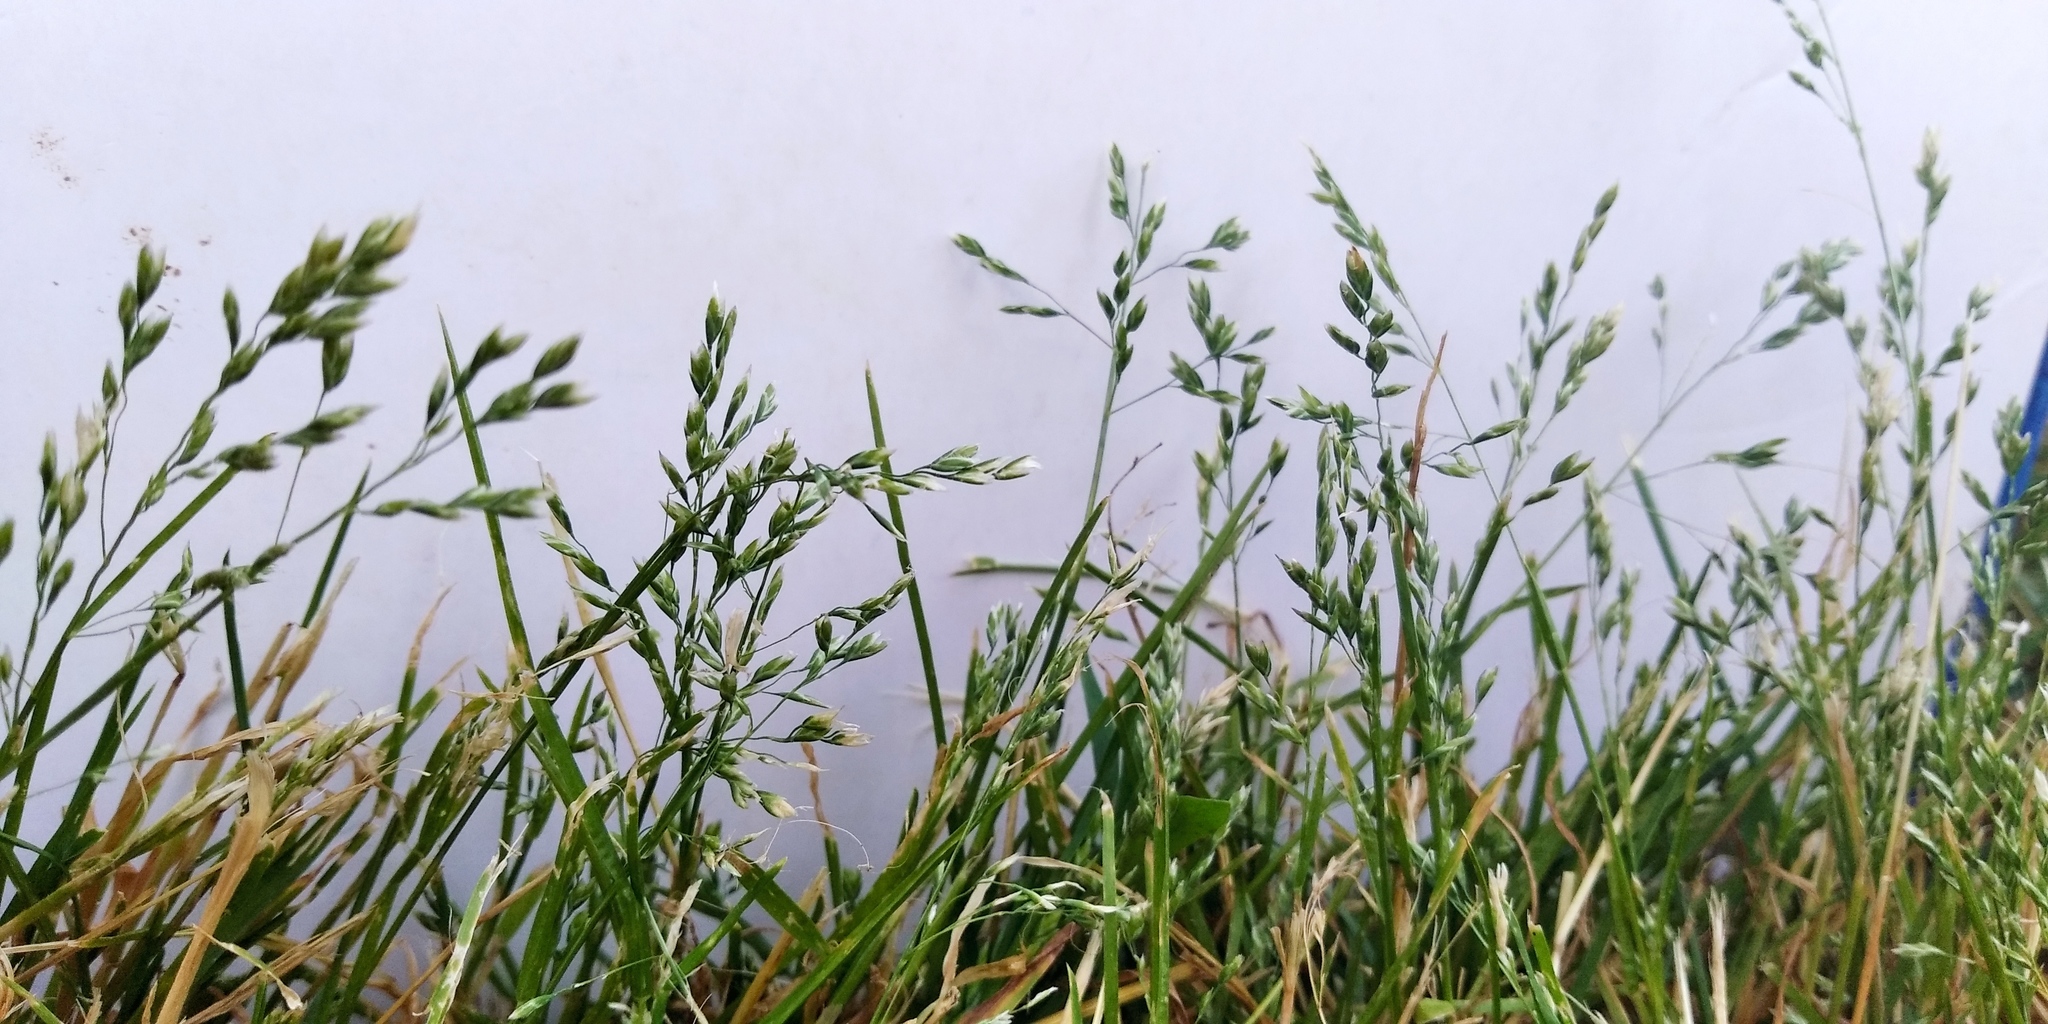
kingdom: Plantae
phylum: Tracheophyta
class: Liliopsida
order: Poales
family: Poaceae
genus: Poa
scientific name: Poa annua
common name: Annual bluegrass
